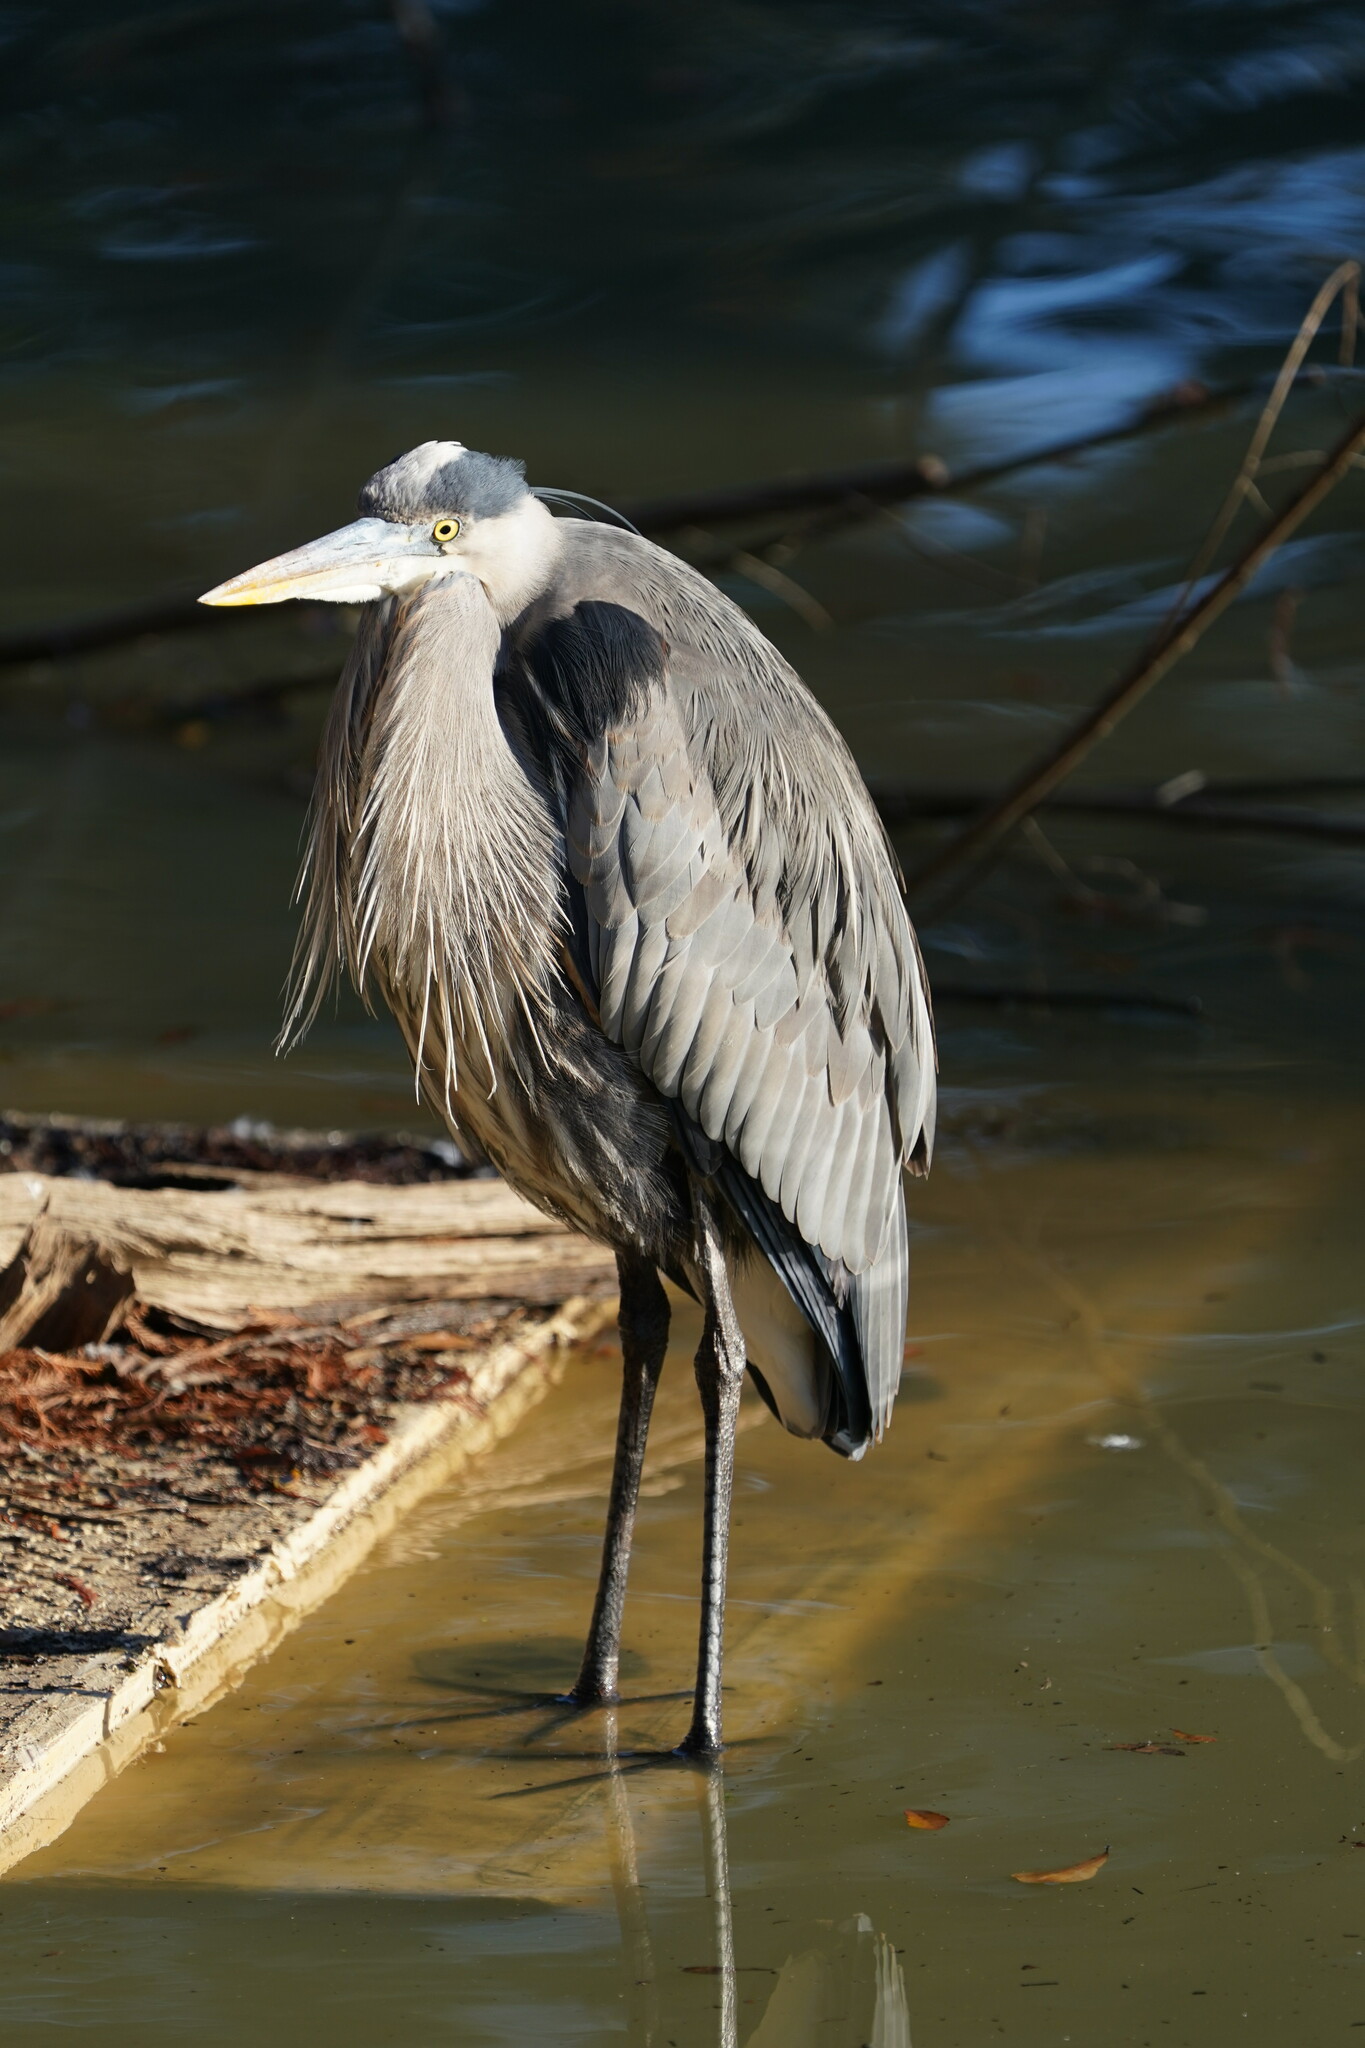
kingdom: Animalia
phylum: Chordata
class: Aves
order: Pelecaniformes
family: Ardeidae
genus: Ardea
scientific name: Ardea herodias
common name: Great blue heron
